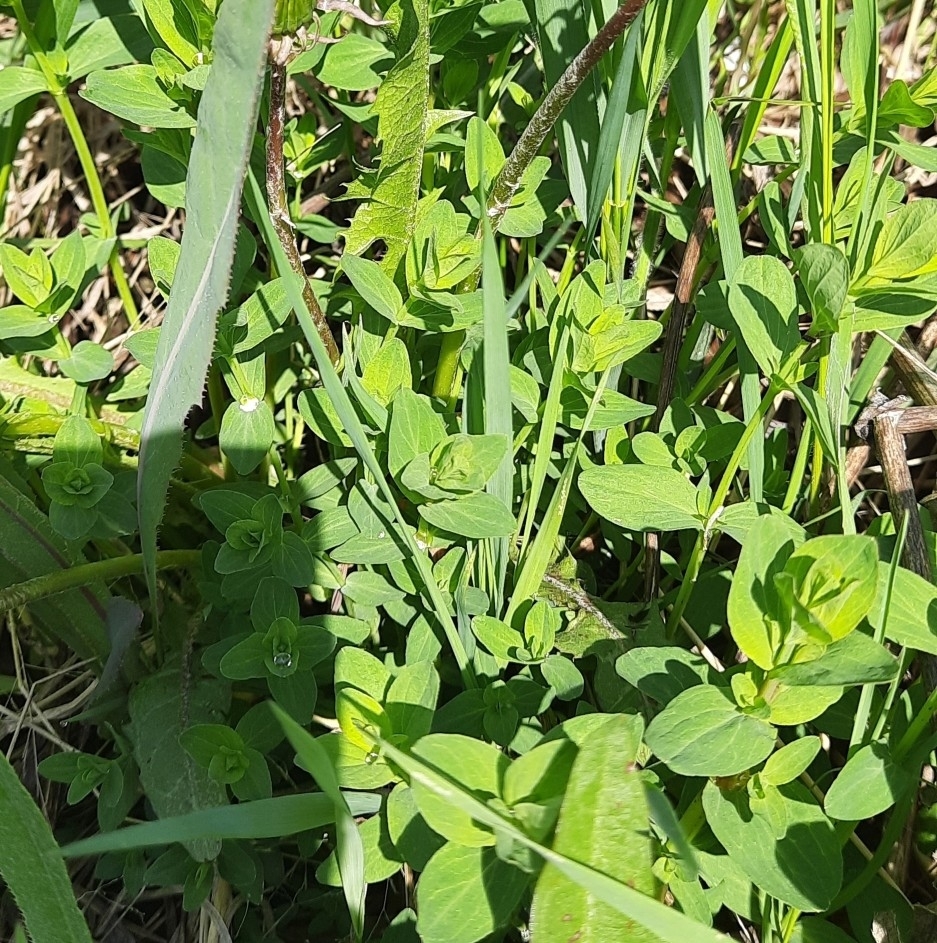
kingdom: Plantae
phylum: Tracheophyta
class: Magnoliopsida
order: Malpighiales
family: Hypericaceae
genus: Hypericum
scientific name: Hypericum maculatum
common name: Imperforate st. john's-wort
